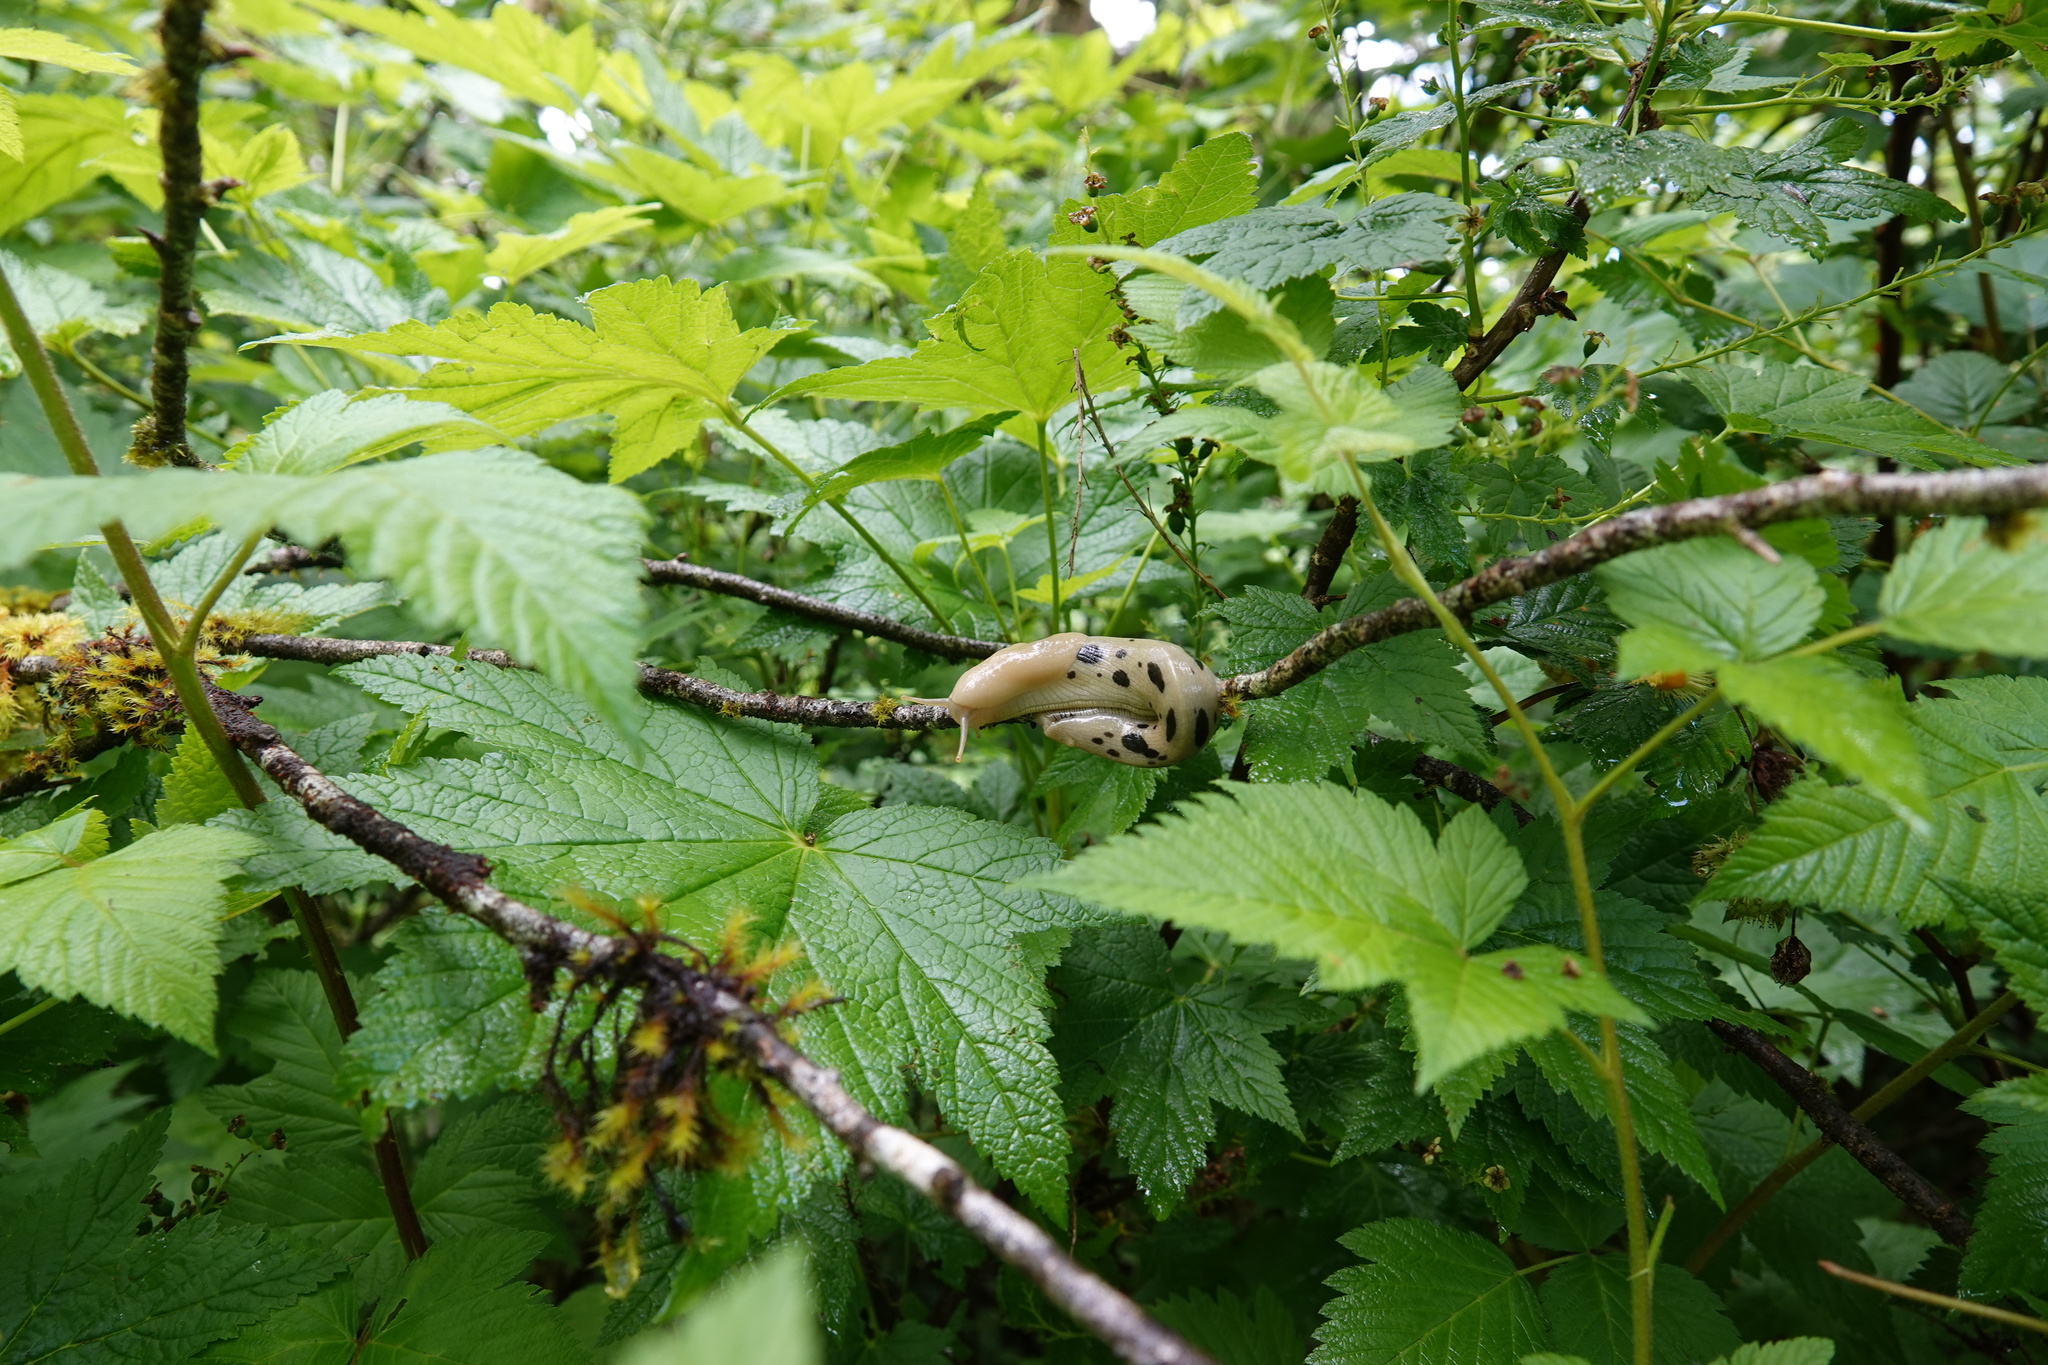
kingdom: Animalia
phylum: Mollusca
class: Gastropoda
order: Stylommatophora
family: Ariolimacidae
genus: Ariolimax
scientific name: Ariolimax columbianus
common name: Pacific banana slug
